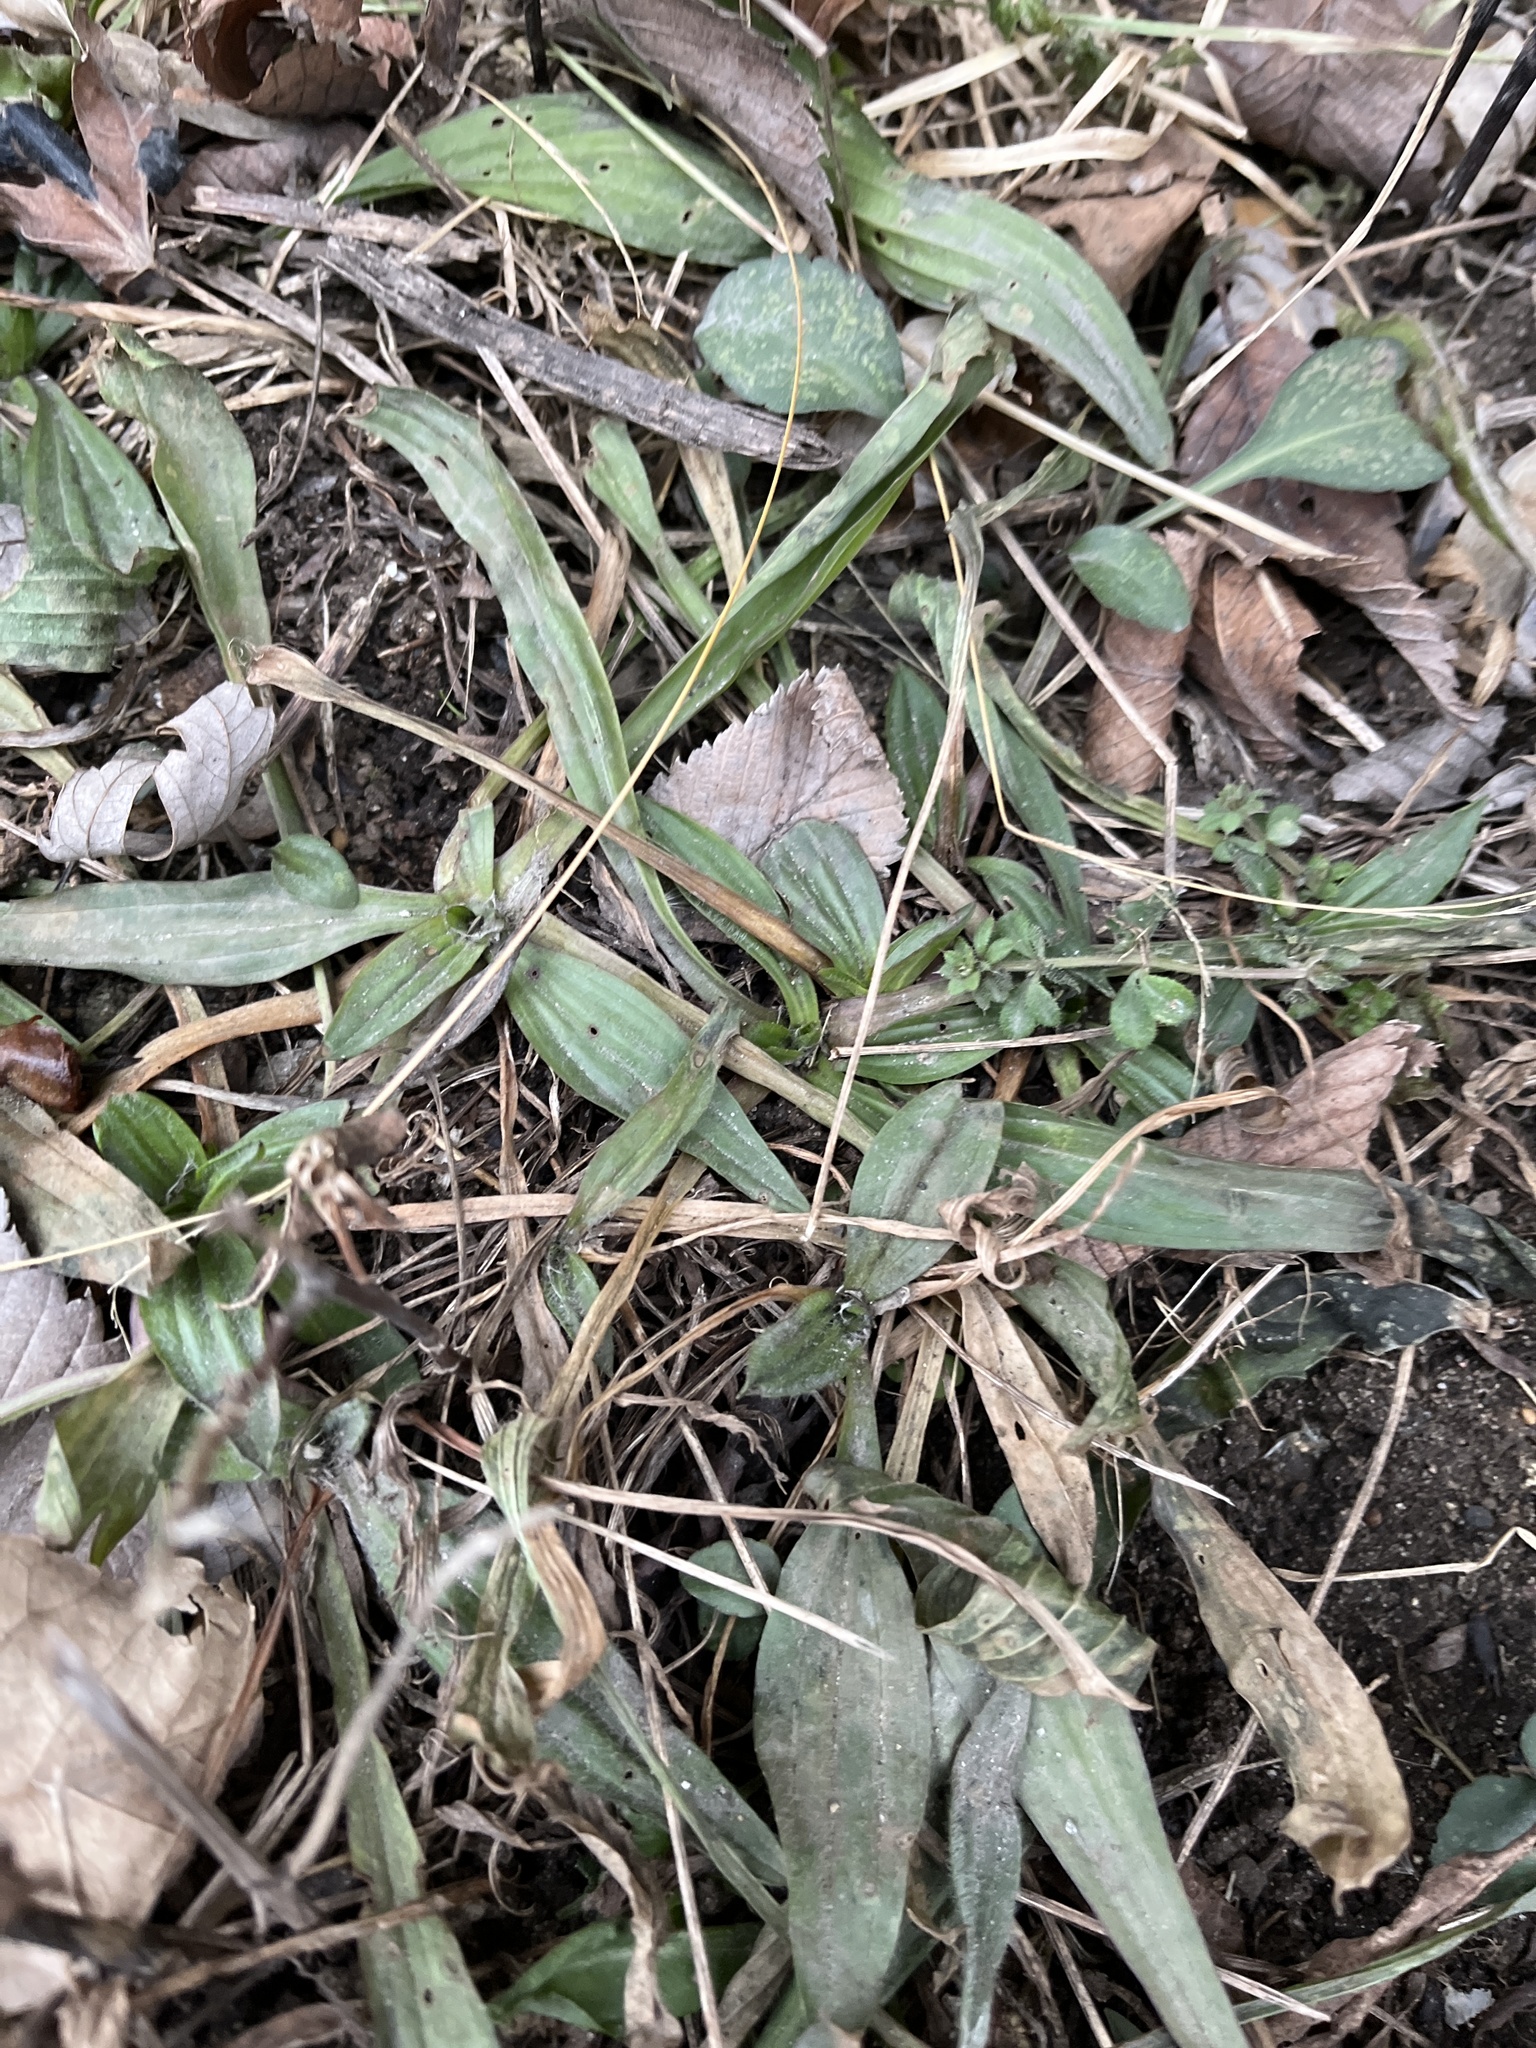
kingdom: Plantae
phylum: Tracheophyta
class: Magnoliopsida
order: Lamiales
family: Plantaginaceae
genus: Plantago
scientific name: Plantago lanceolata
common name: Ribwort plantain
